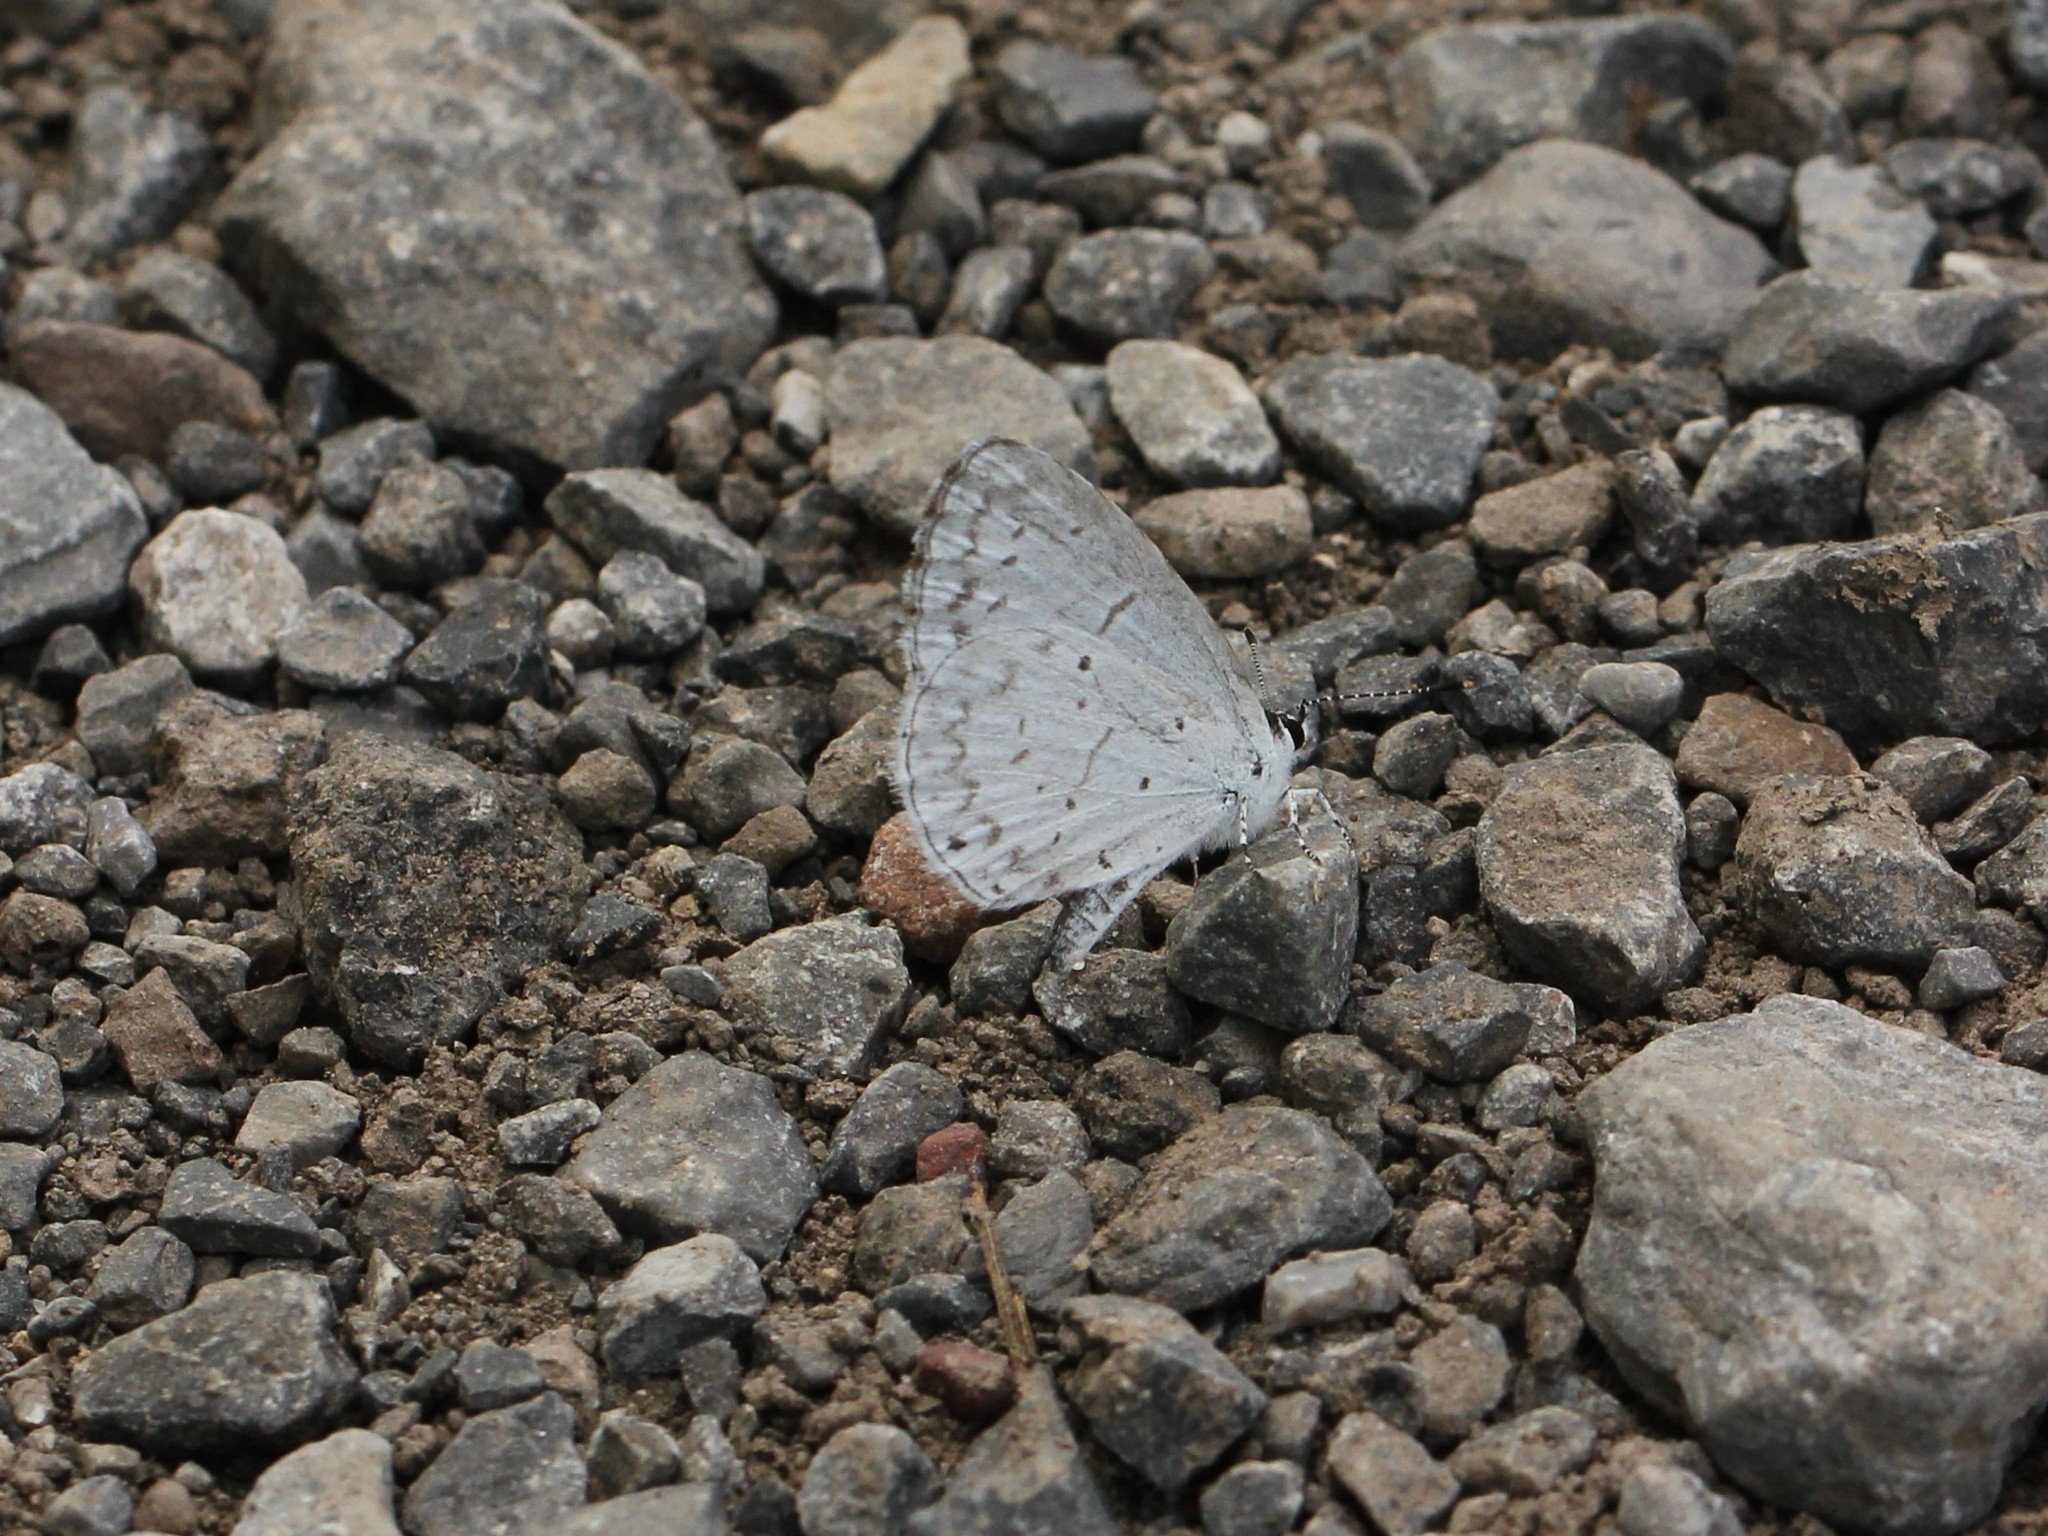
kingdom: Animalia
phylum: Arthropoda
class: Insecta
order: Lepidoptera
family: Lycaenidae
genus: Cyaniris
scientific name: Cyaniris neglecta
